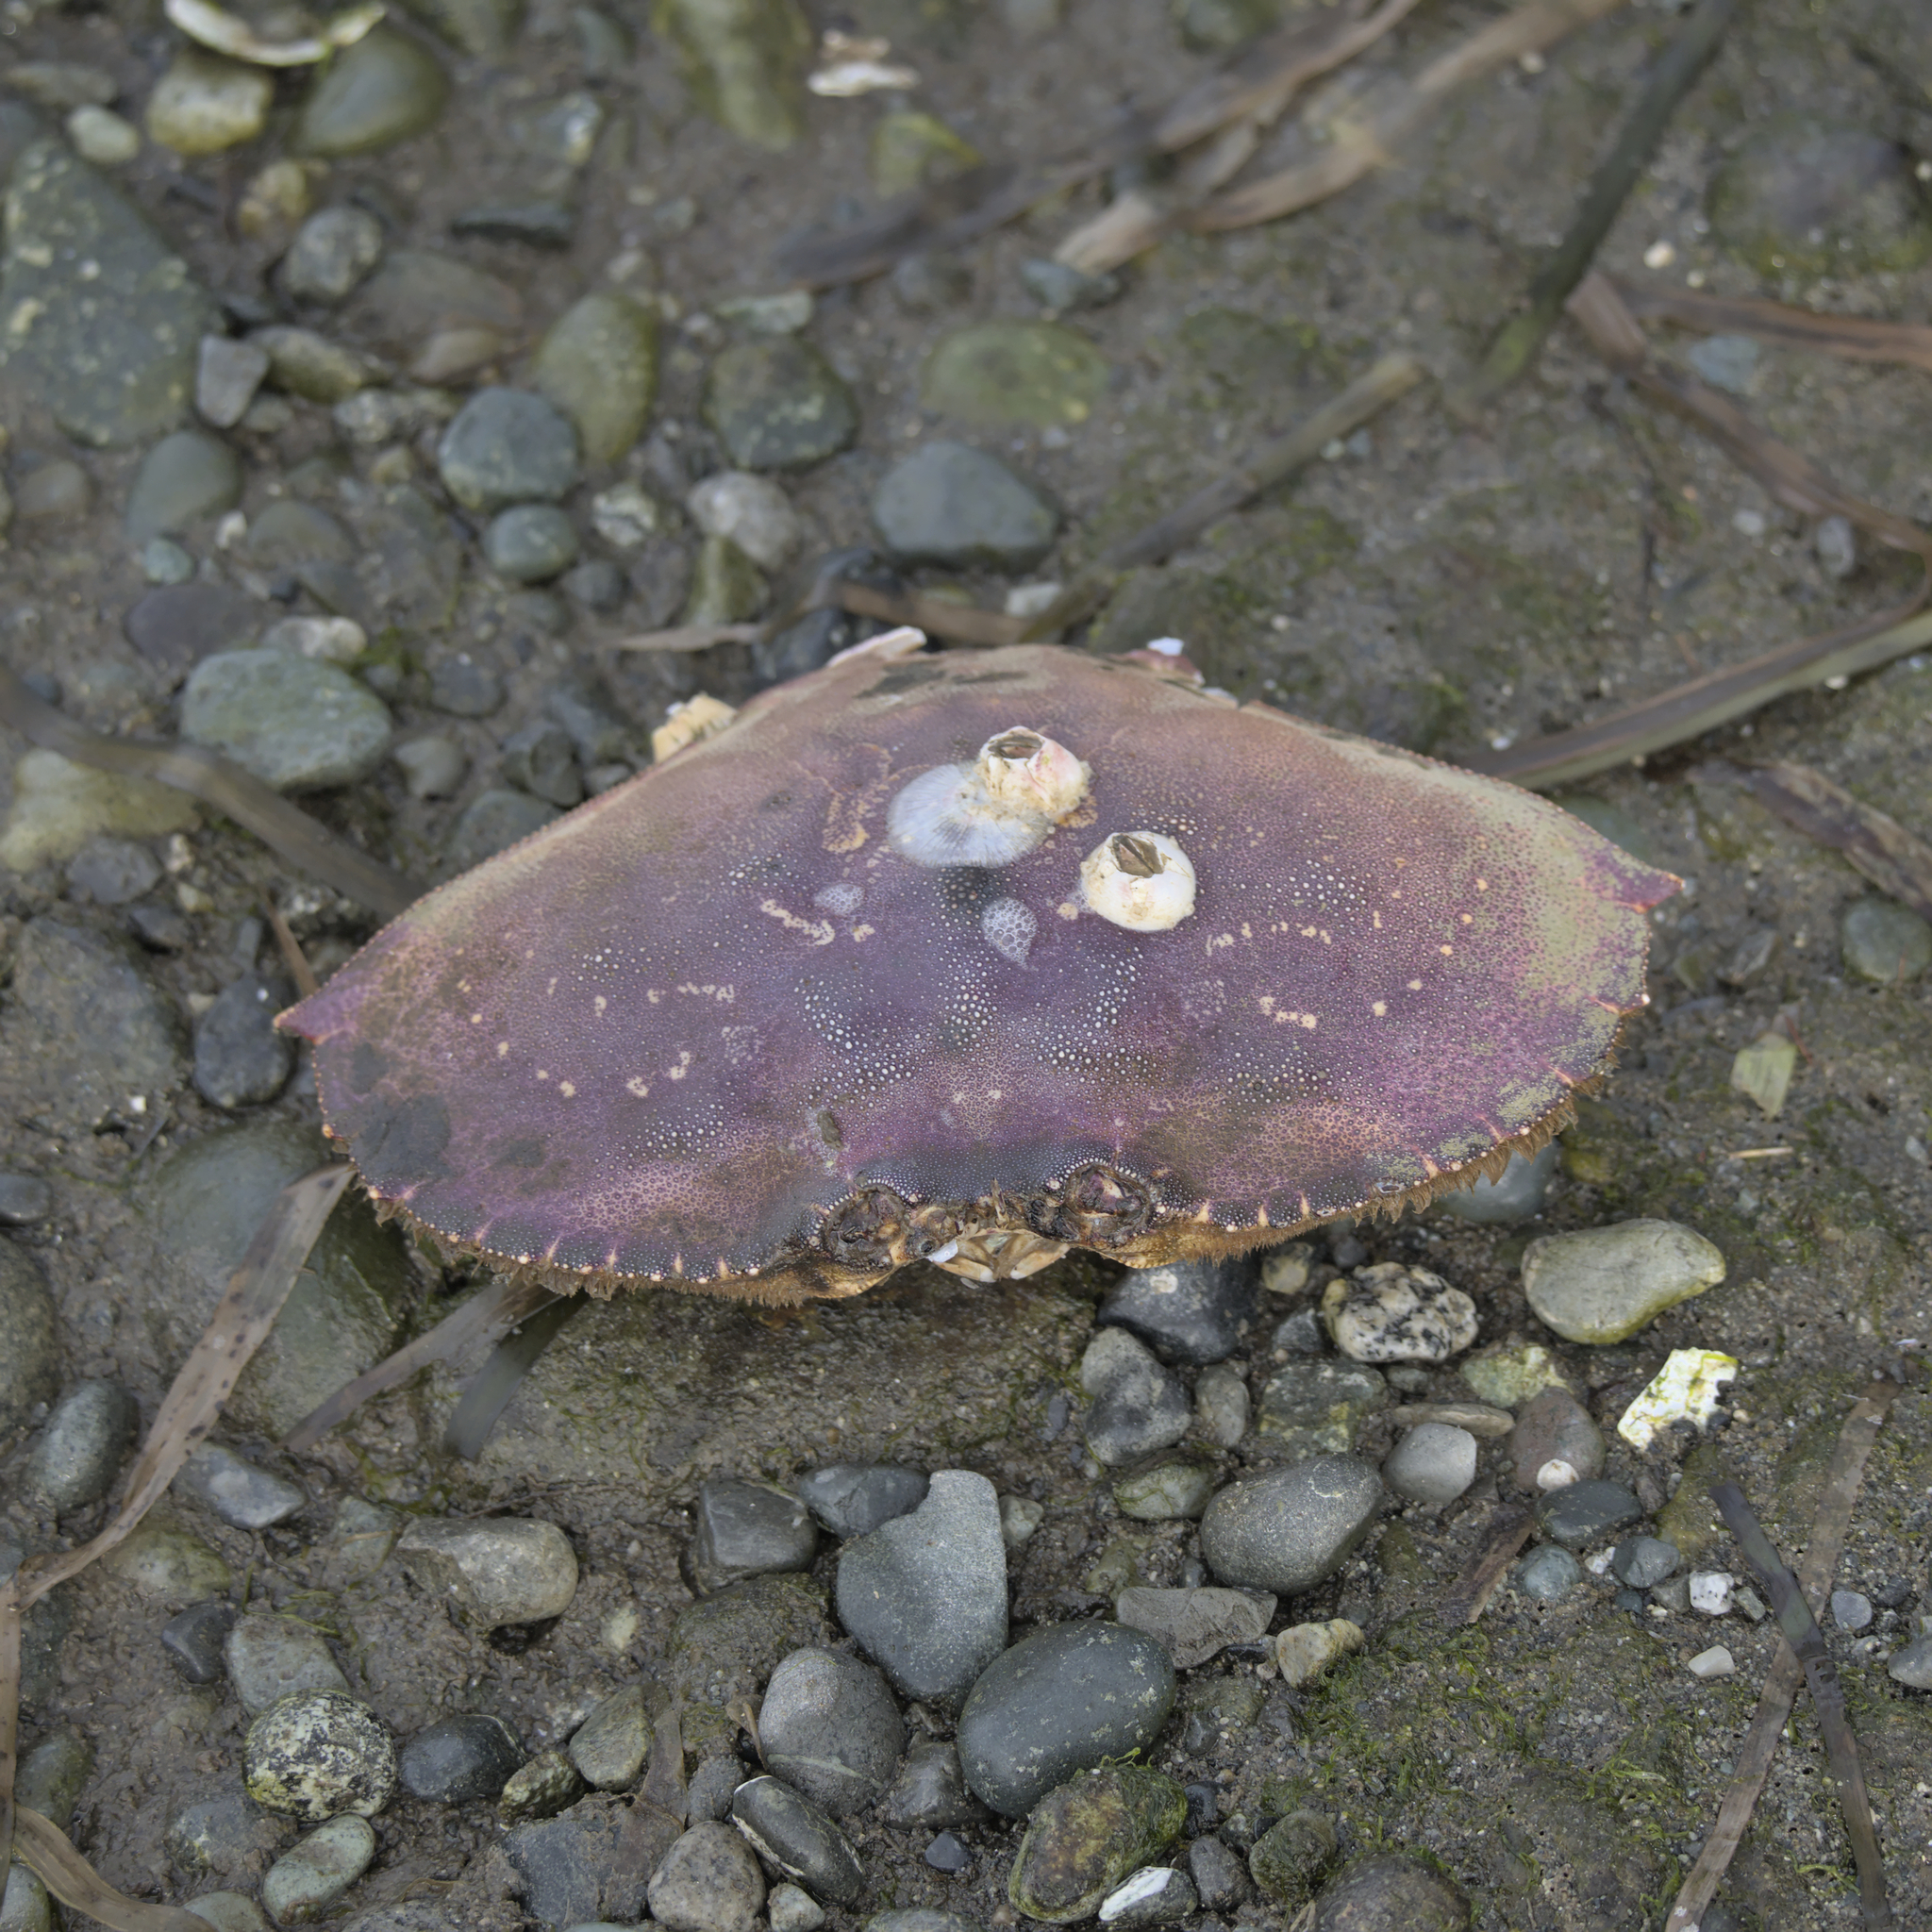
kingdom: Animalia
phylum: Arthropoda
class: Malacostraca
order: Decapoda
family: Cancridae
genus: Metacarcinus
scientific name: Metacarcinus magister
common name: Californian crab
